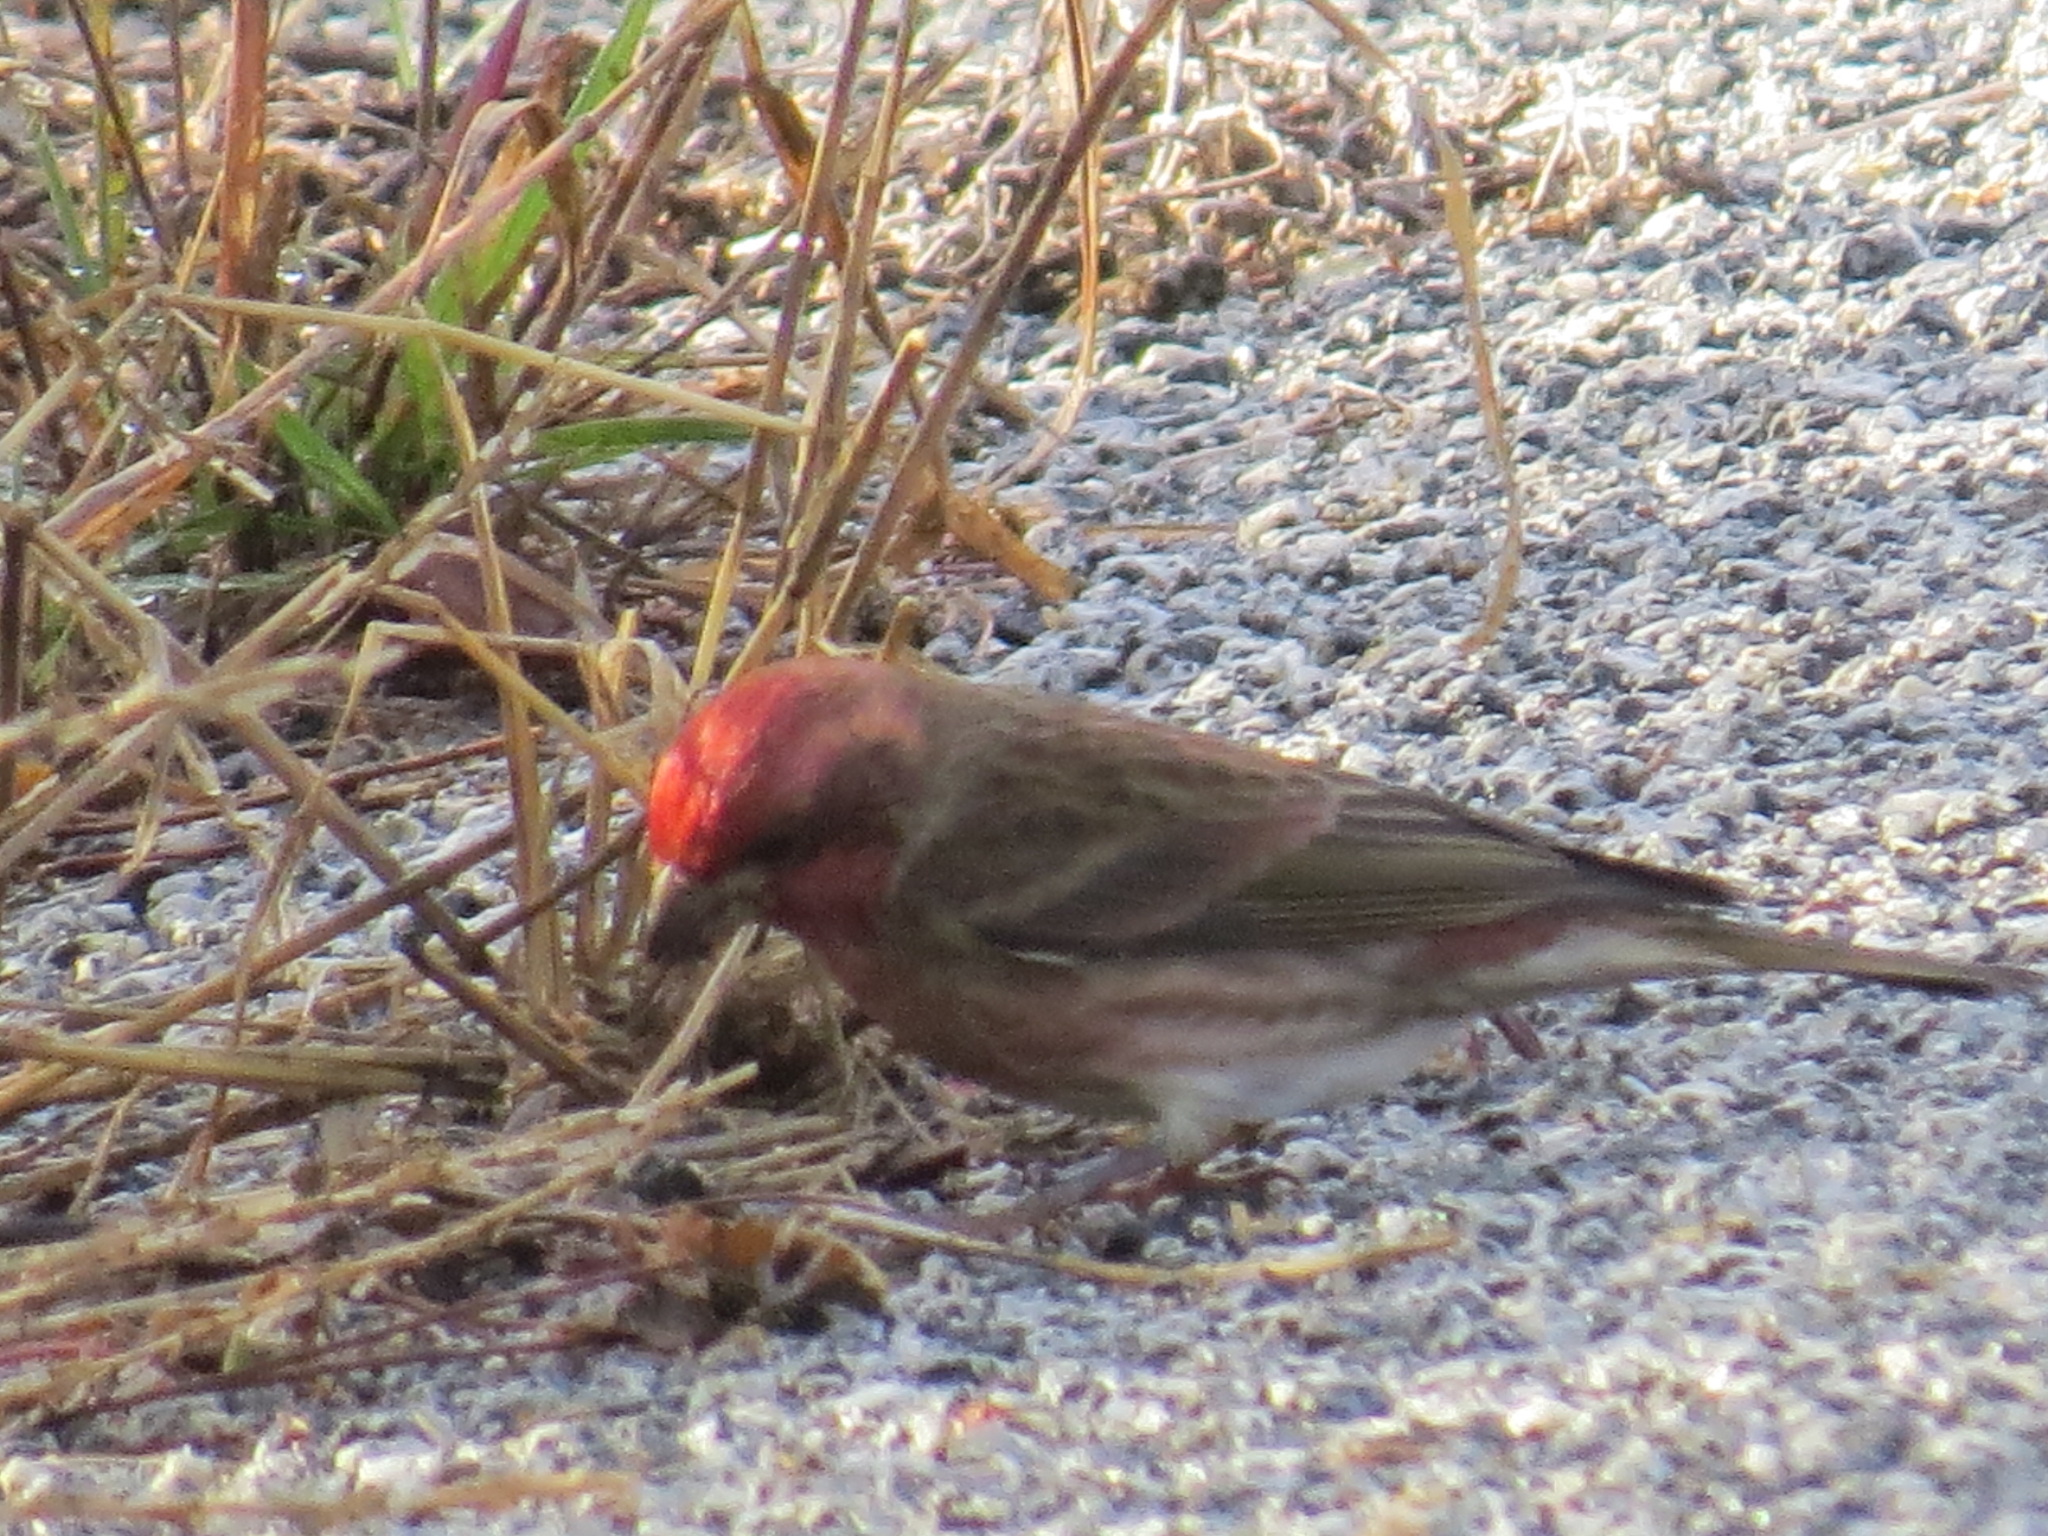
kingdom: Animalia
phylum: Chordata
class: Aves
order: Passeriformes
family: Fringillidae
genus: Haemorhous
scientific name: Haemorhous purpureus
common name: Purple finch
